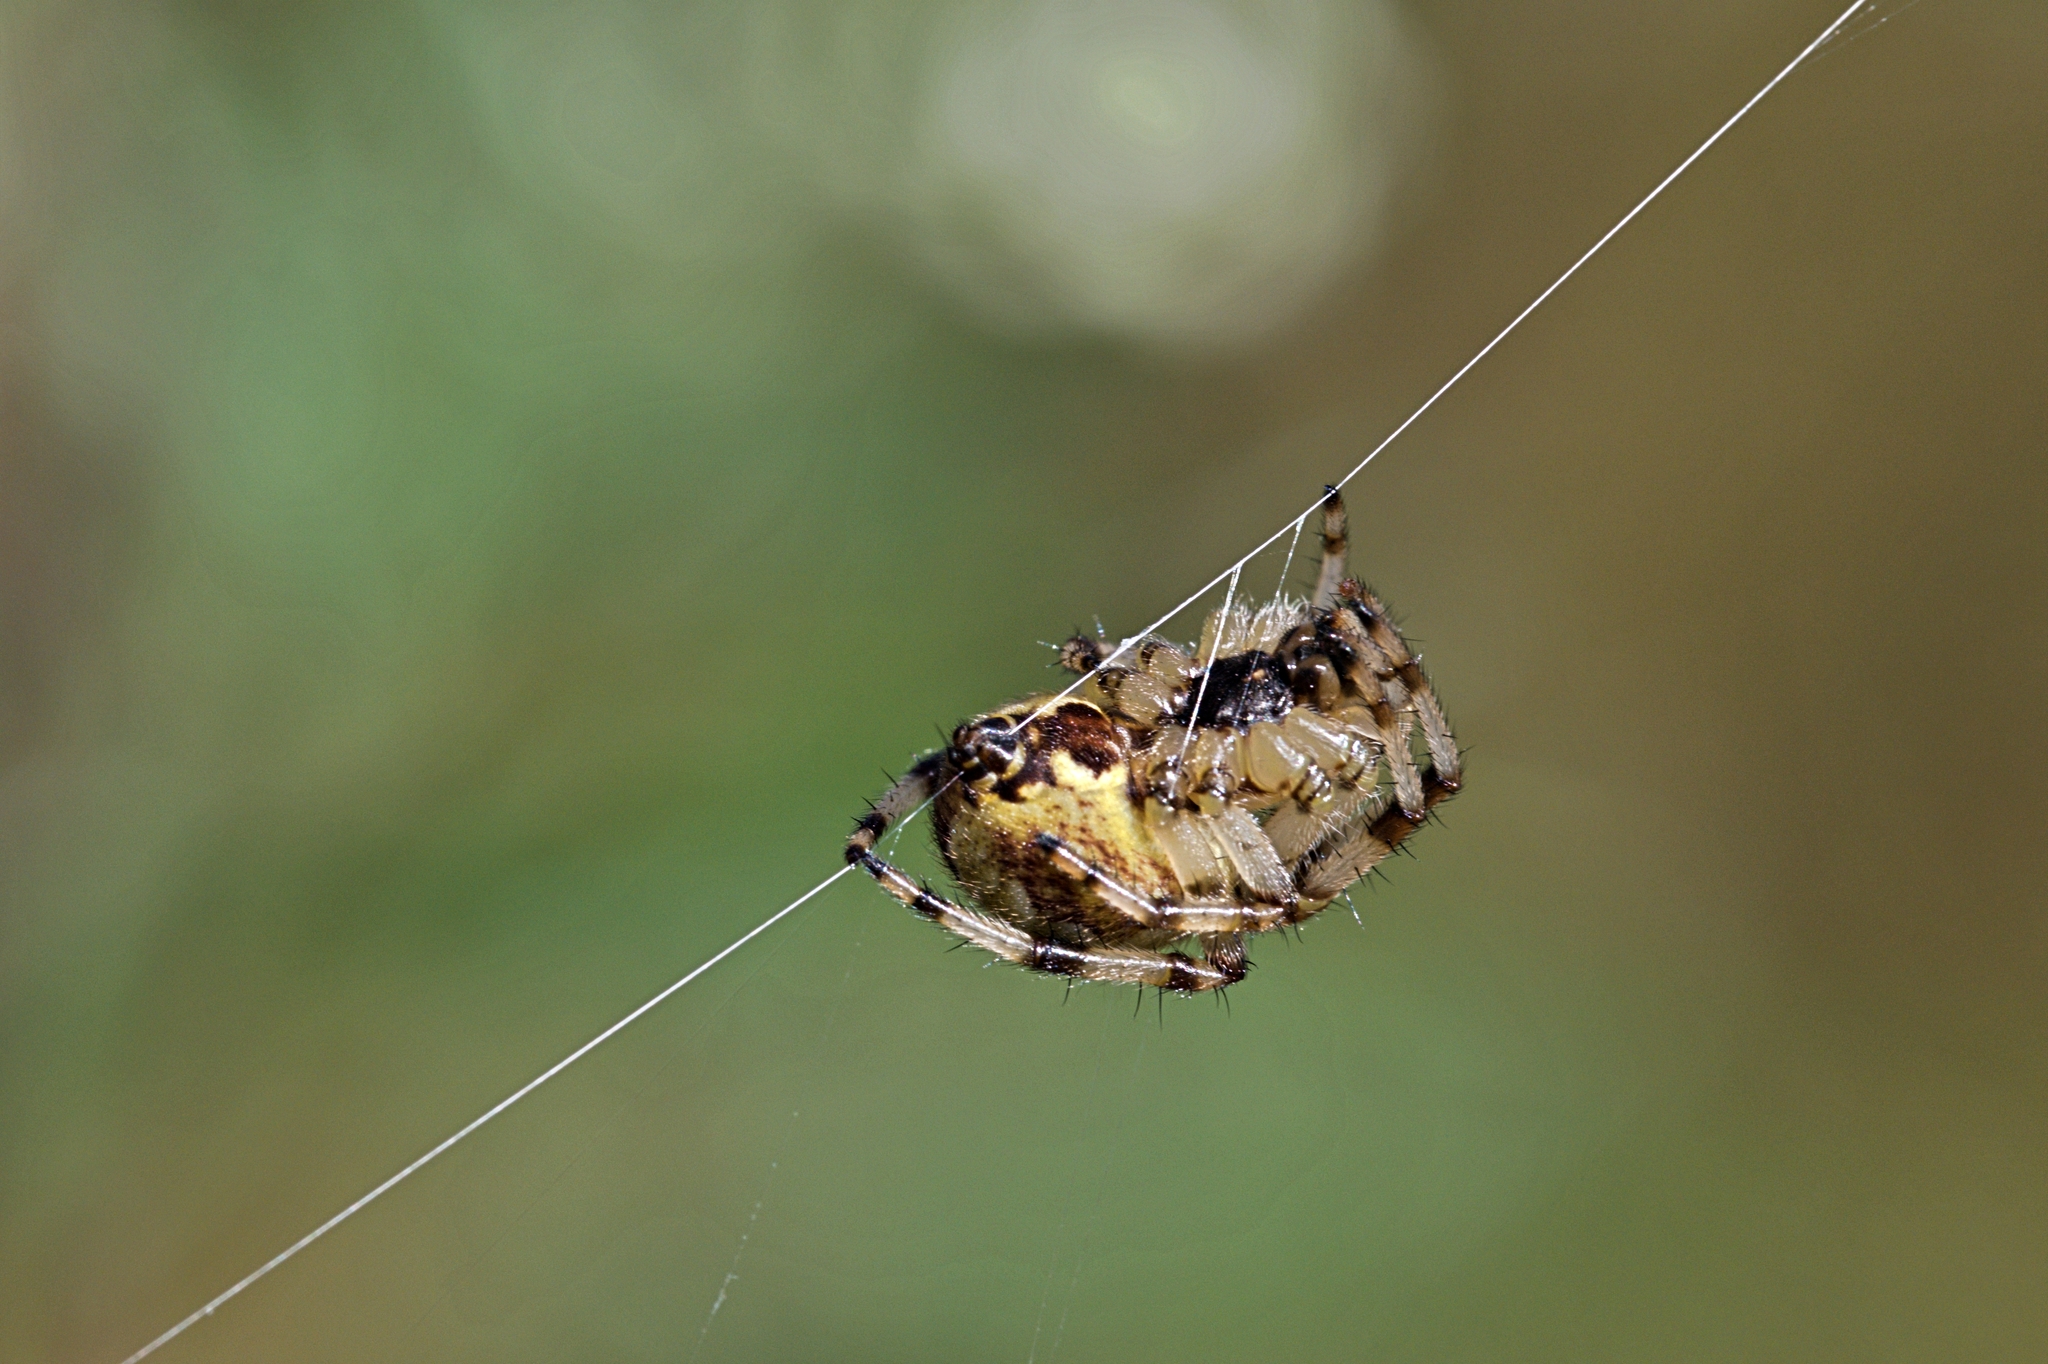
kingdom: Animalia
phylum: Arthropoda
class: Arachnida
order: Araneae
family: Araneidae
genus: Araneus
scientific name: Araneus quadratus
